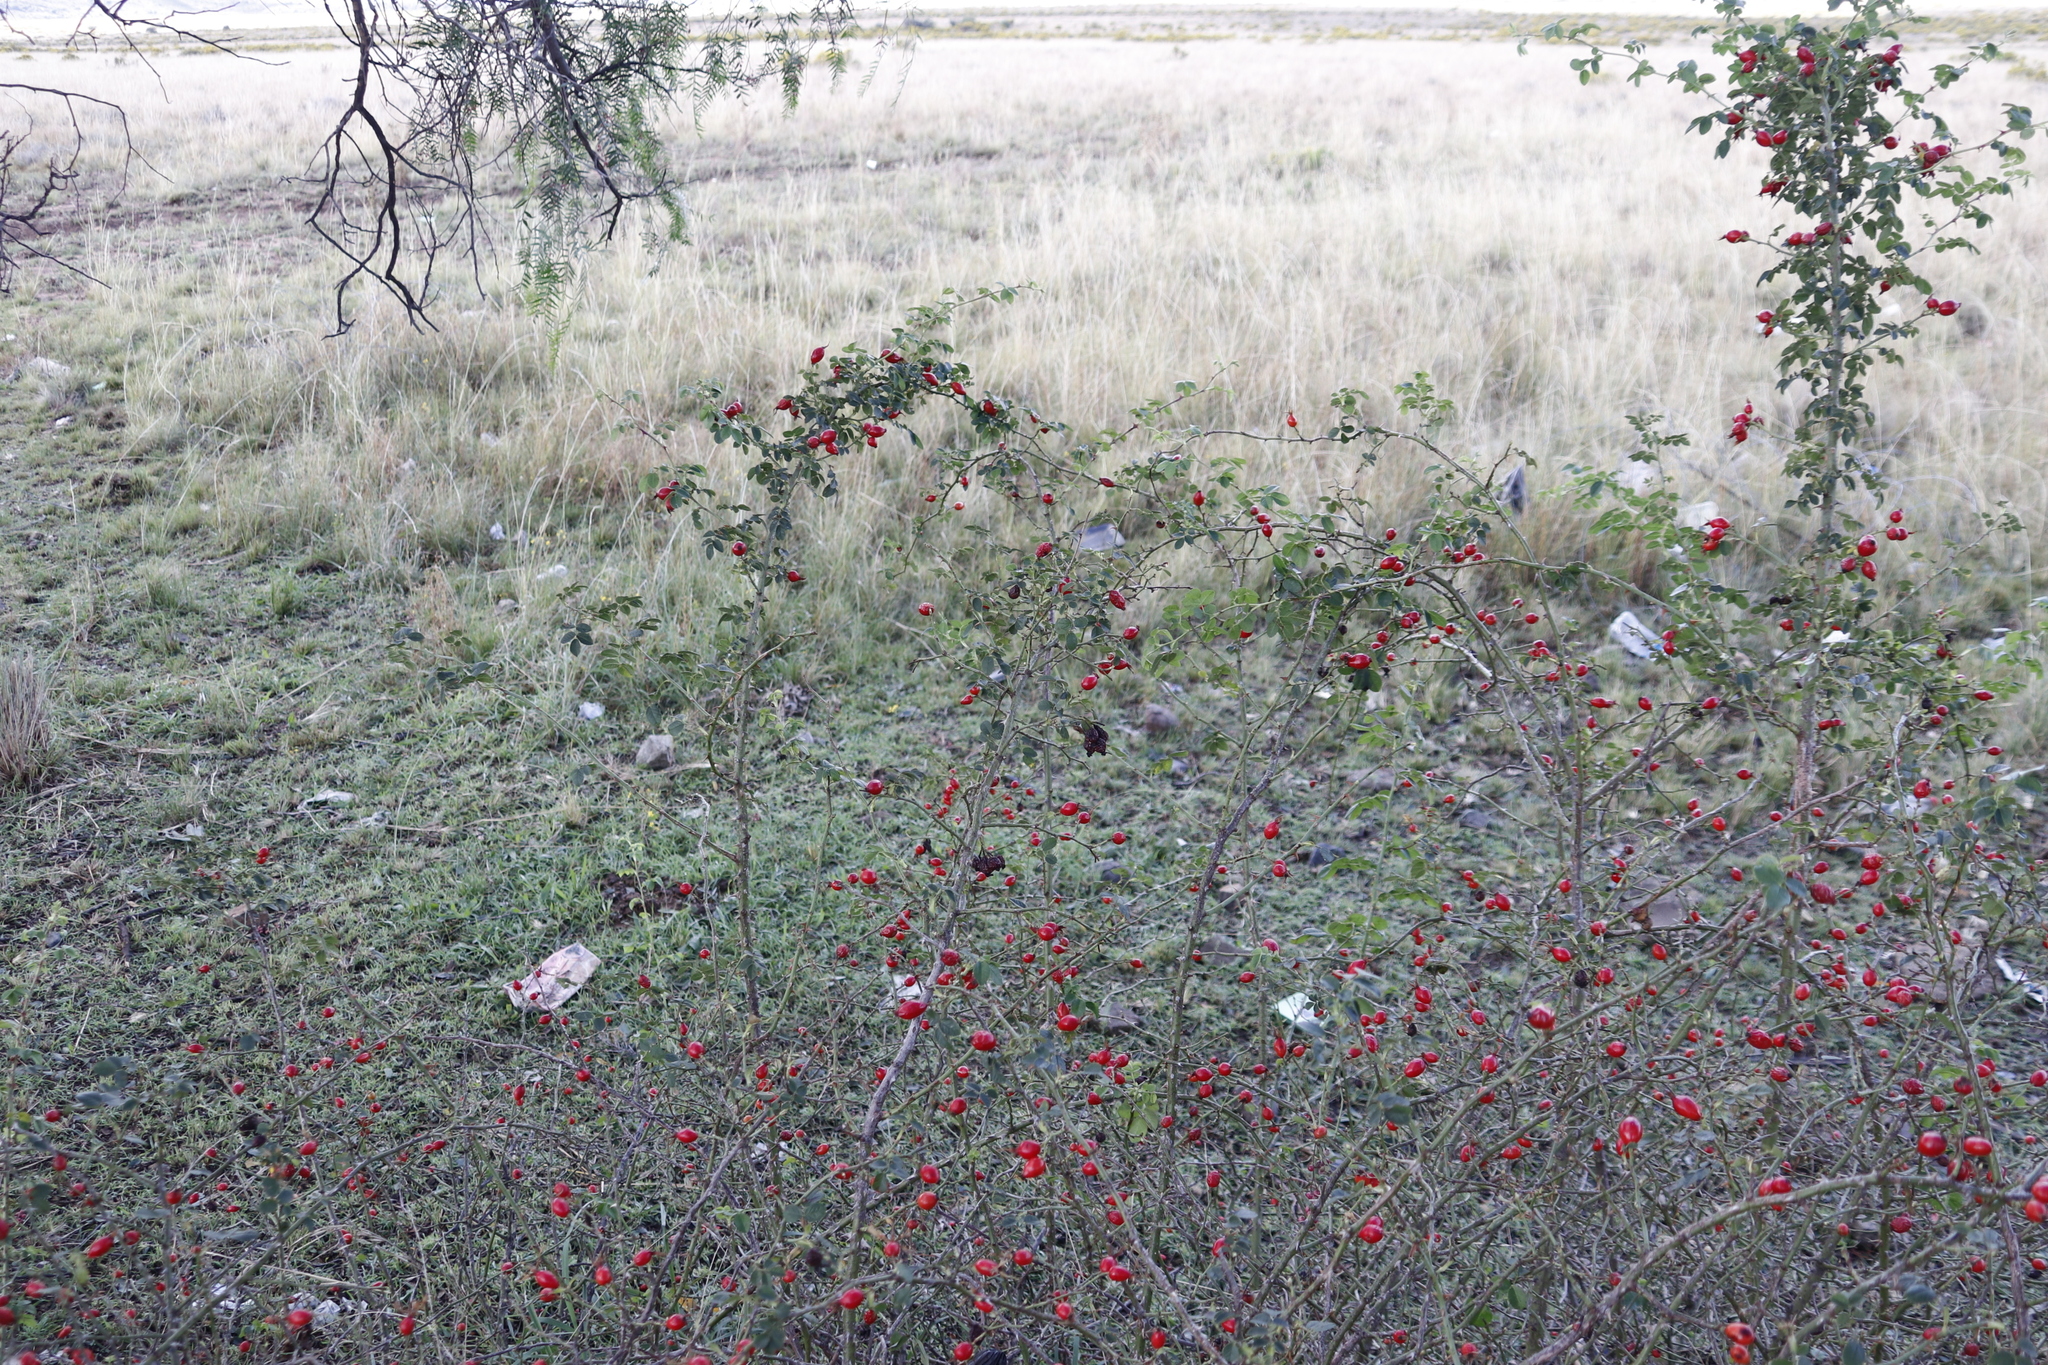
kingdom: Plantae
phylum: Tracheophyta
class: Magnoliopsida
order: Rosales
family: Rosaceae
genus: Rosa
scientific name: Rosa rubiginosa
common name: Sweet-briar
